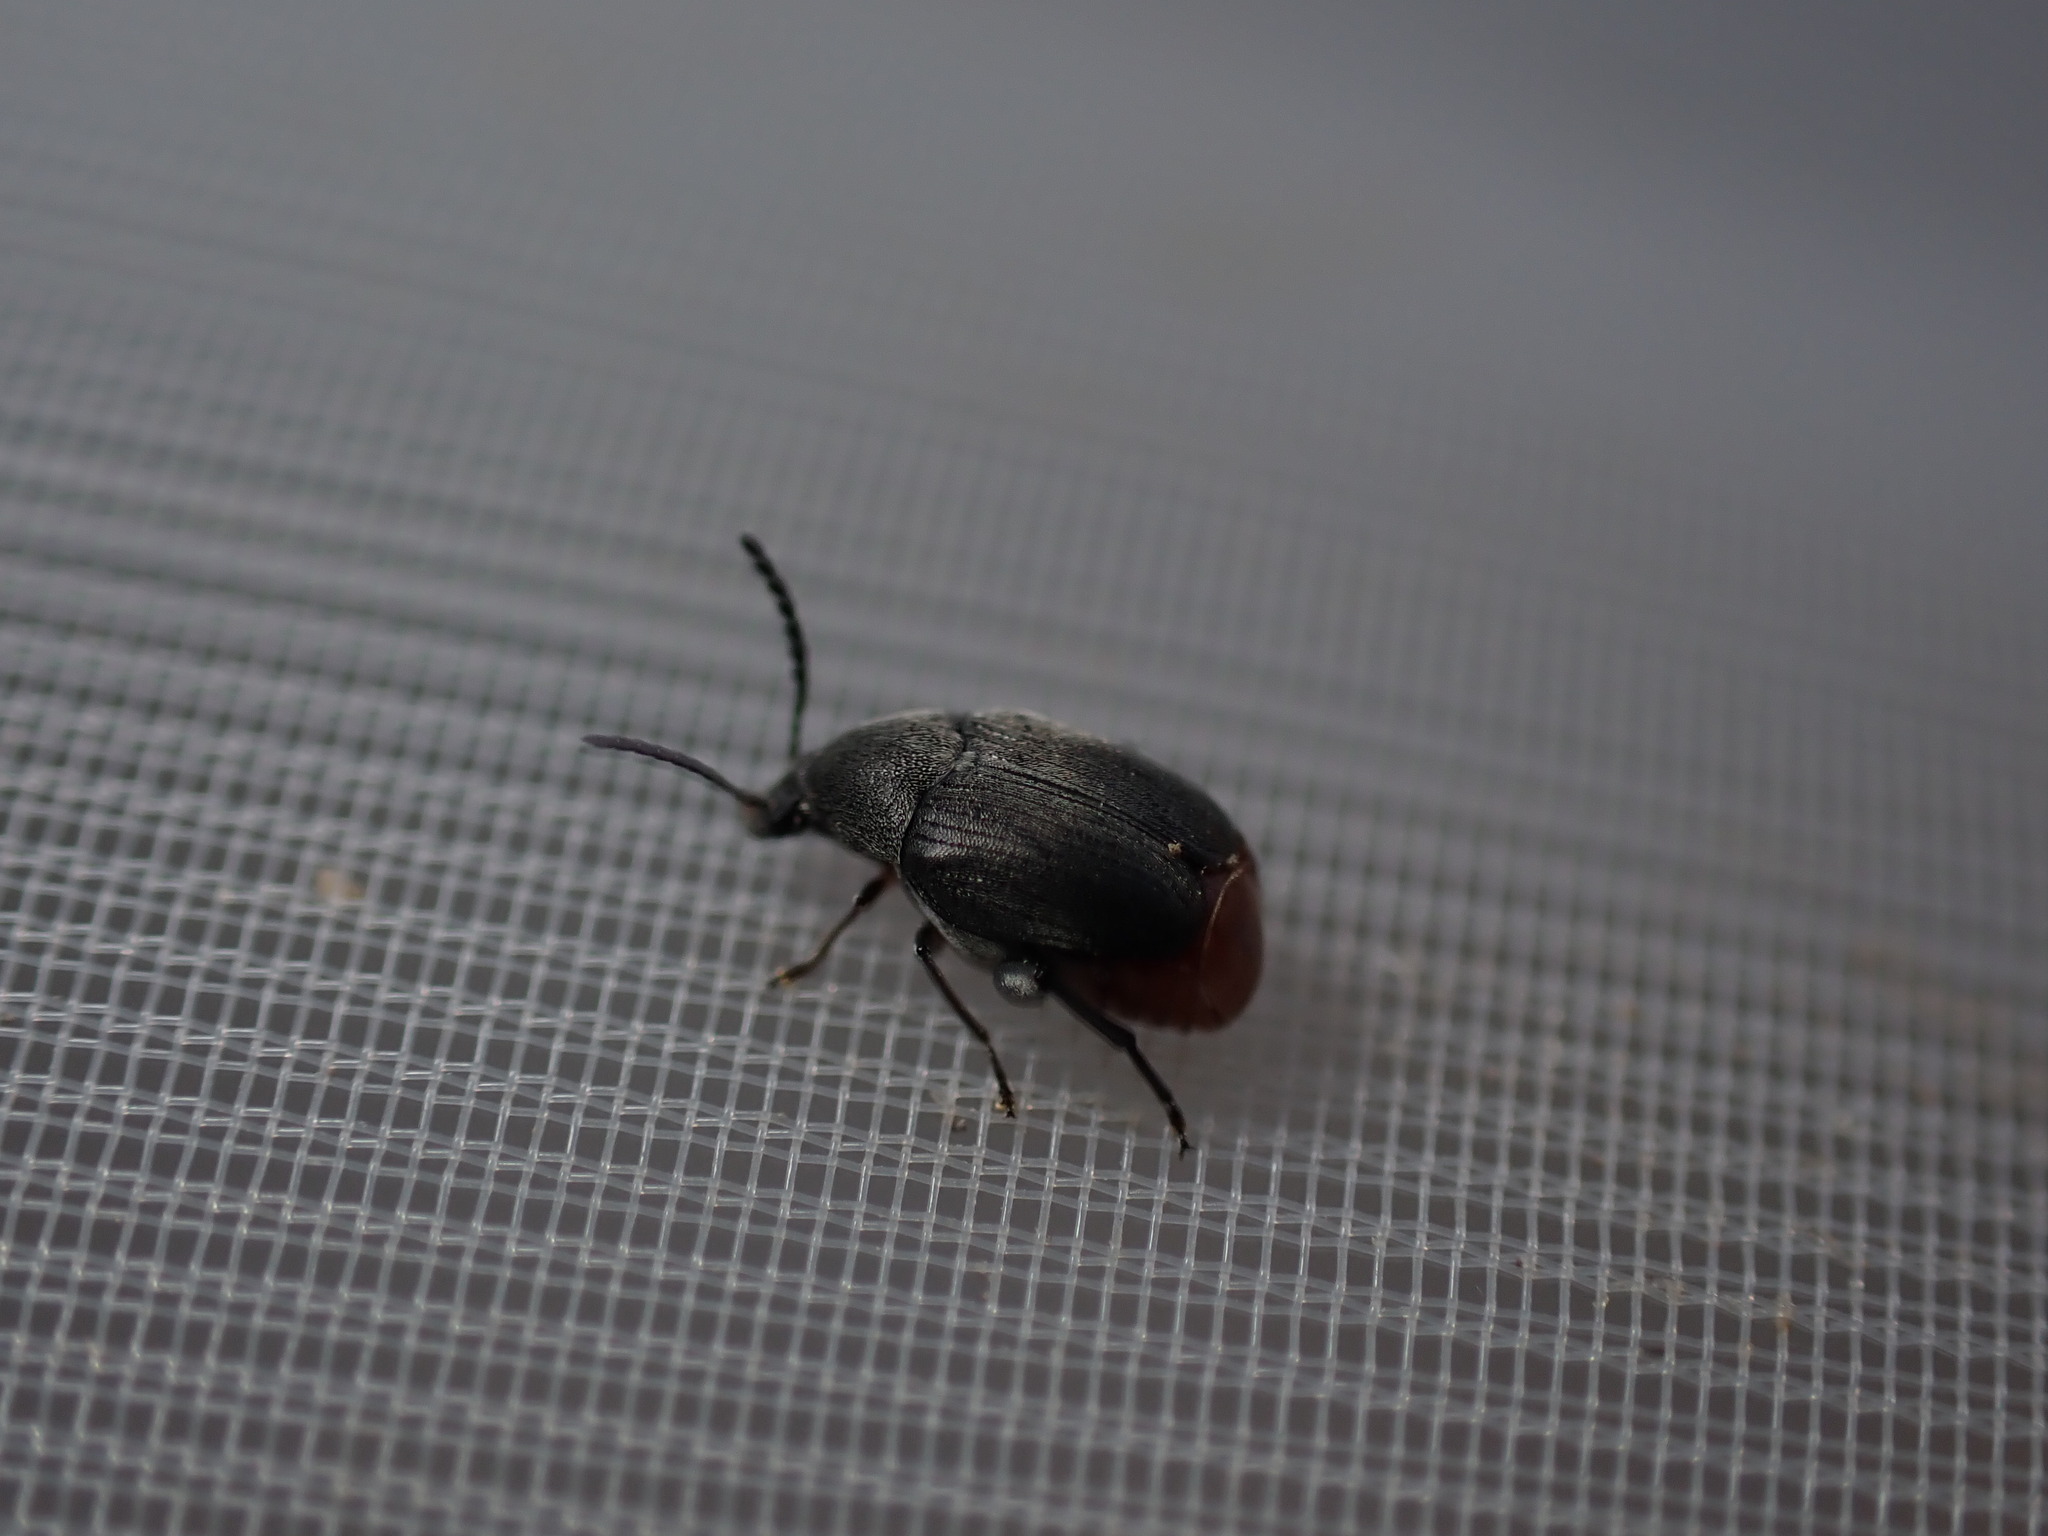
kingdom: Animalia
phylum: Arthropoda
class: Insecta
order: Coleoptera
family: Chrysomelidae
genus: Bruchidius
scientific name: Bruchidius siliquastri
